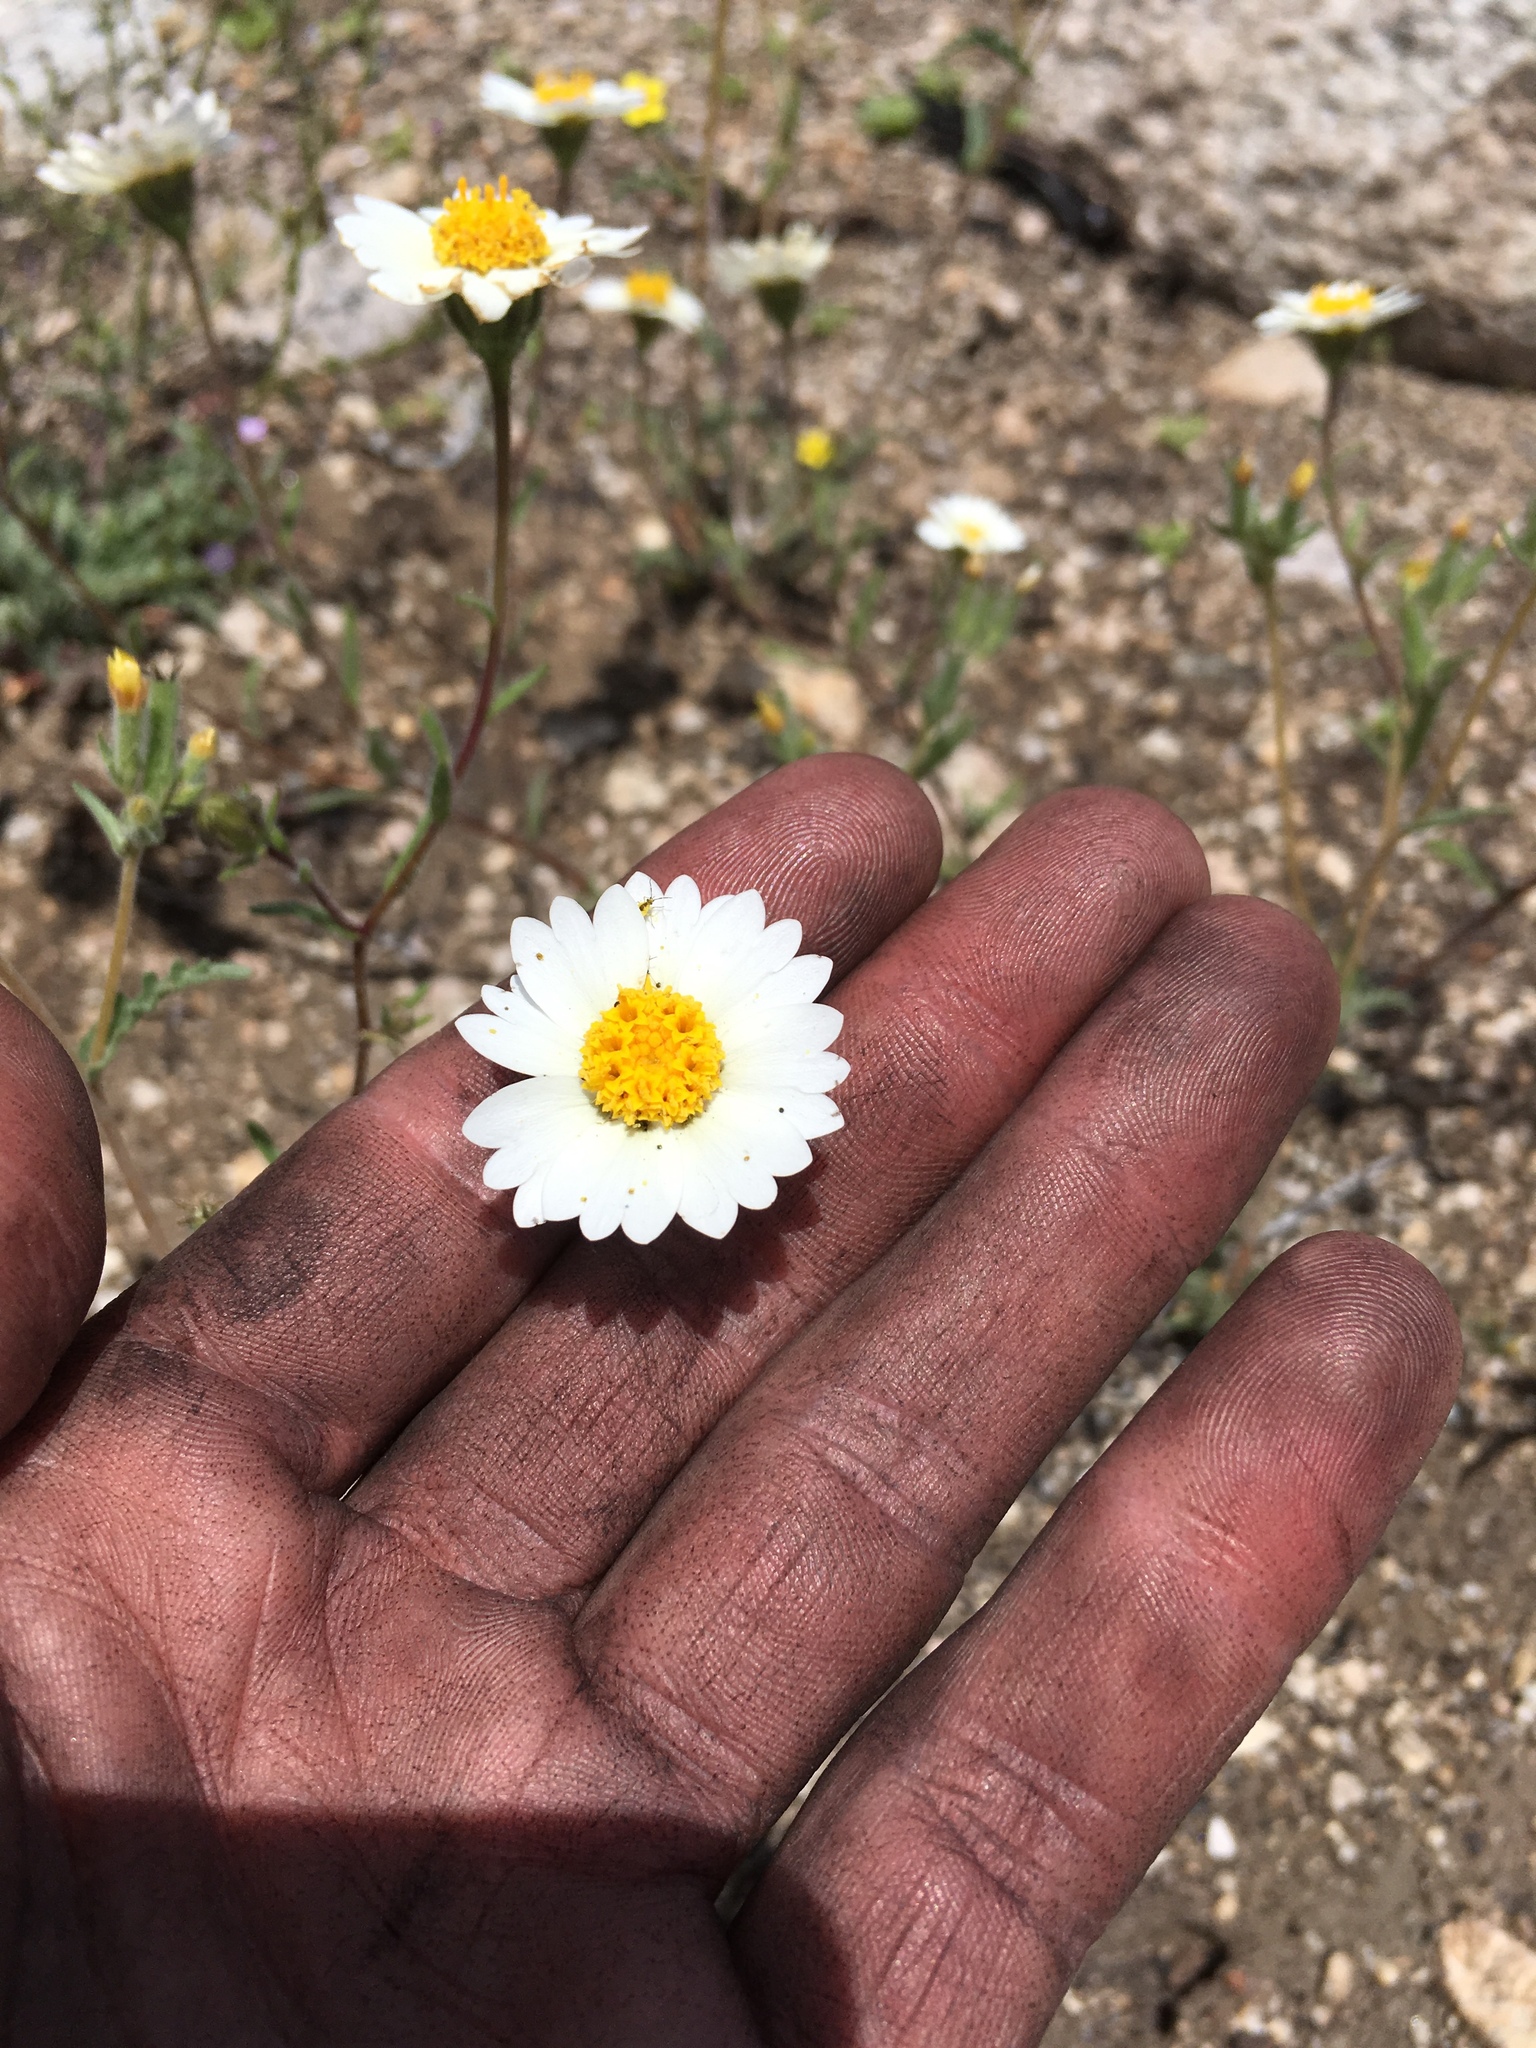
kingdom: Plantae
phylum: Tracheophyta
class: Magnoliopsida
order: Asterales
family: Asteraceae
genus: Layia
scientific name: Layia glandulosa
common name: White layia
